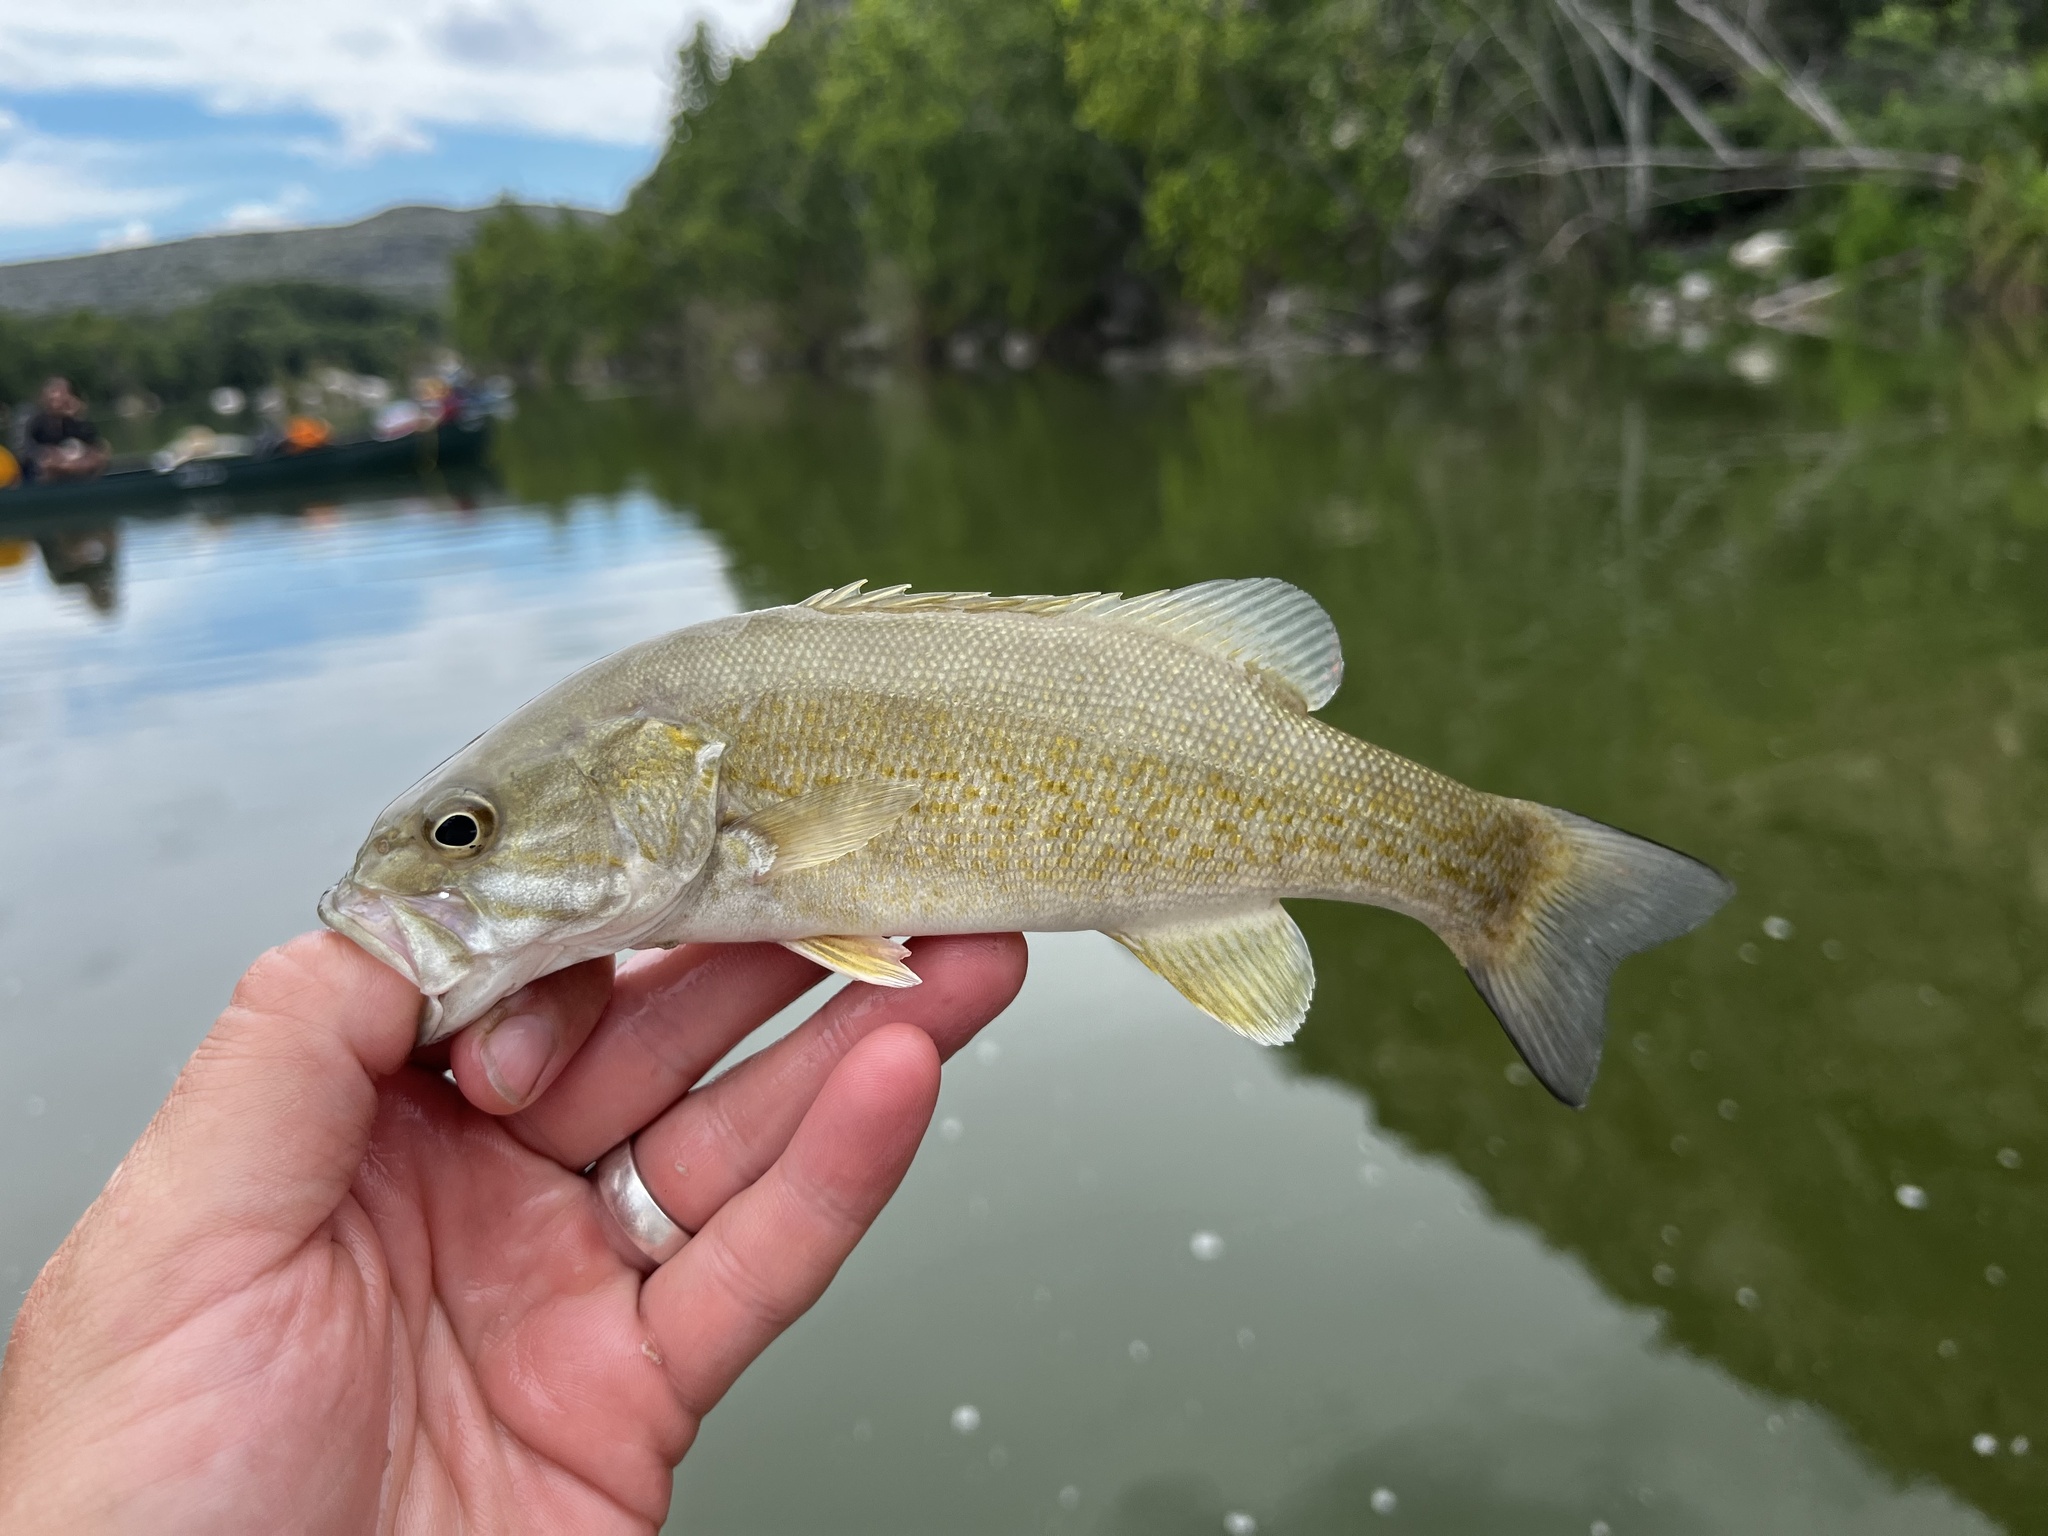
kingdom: Animalia
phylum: Chordata
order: Perciformes
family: Centrarchidae
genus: Micropterus
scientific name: Micropterus dolomieu
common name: Smallmouth bass
